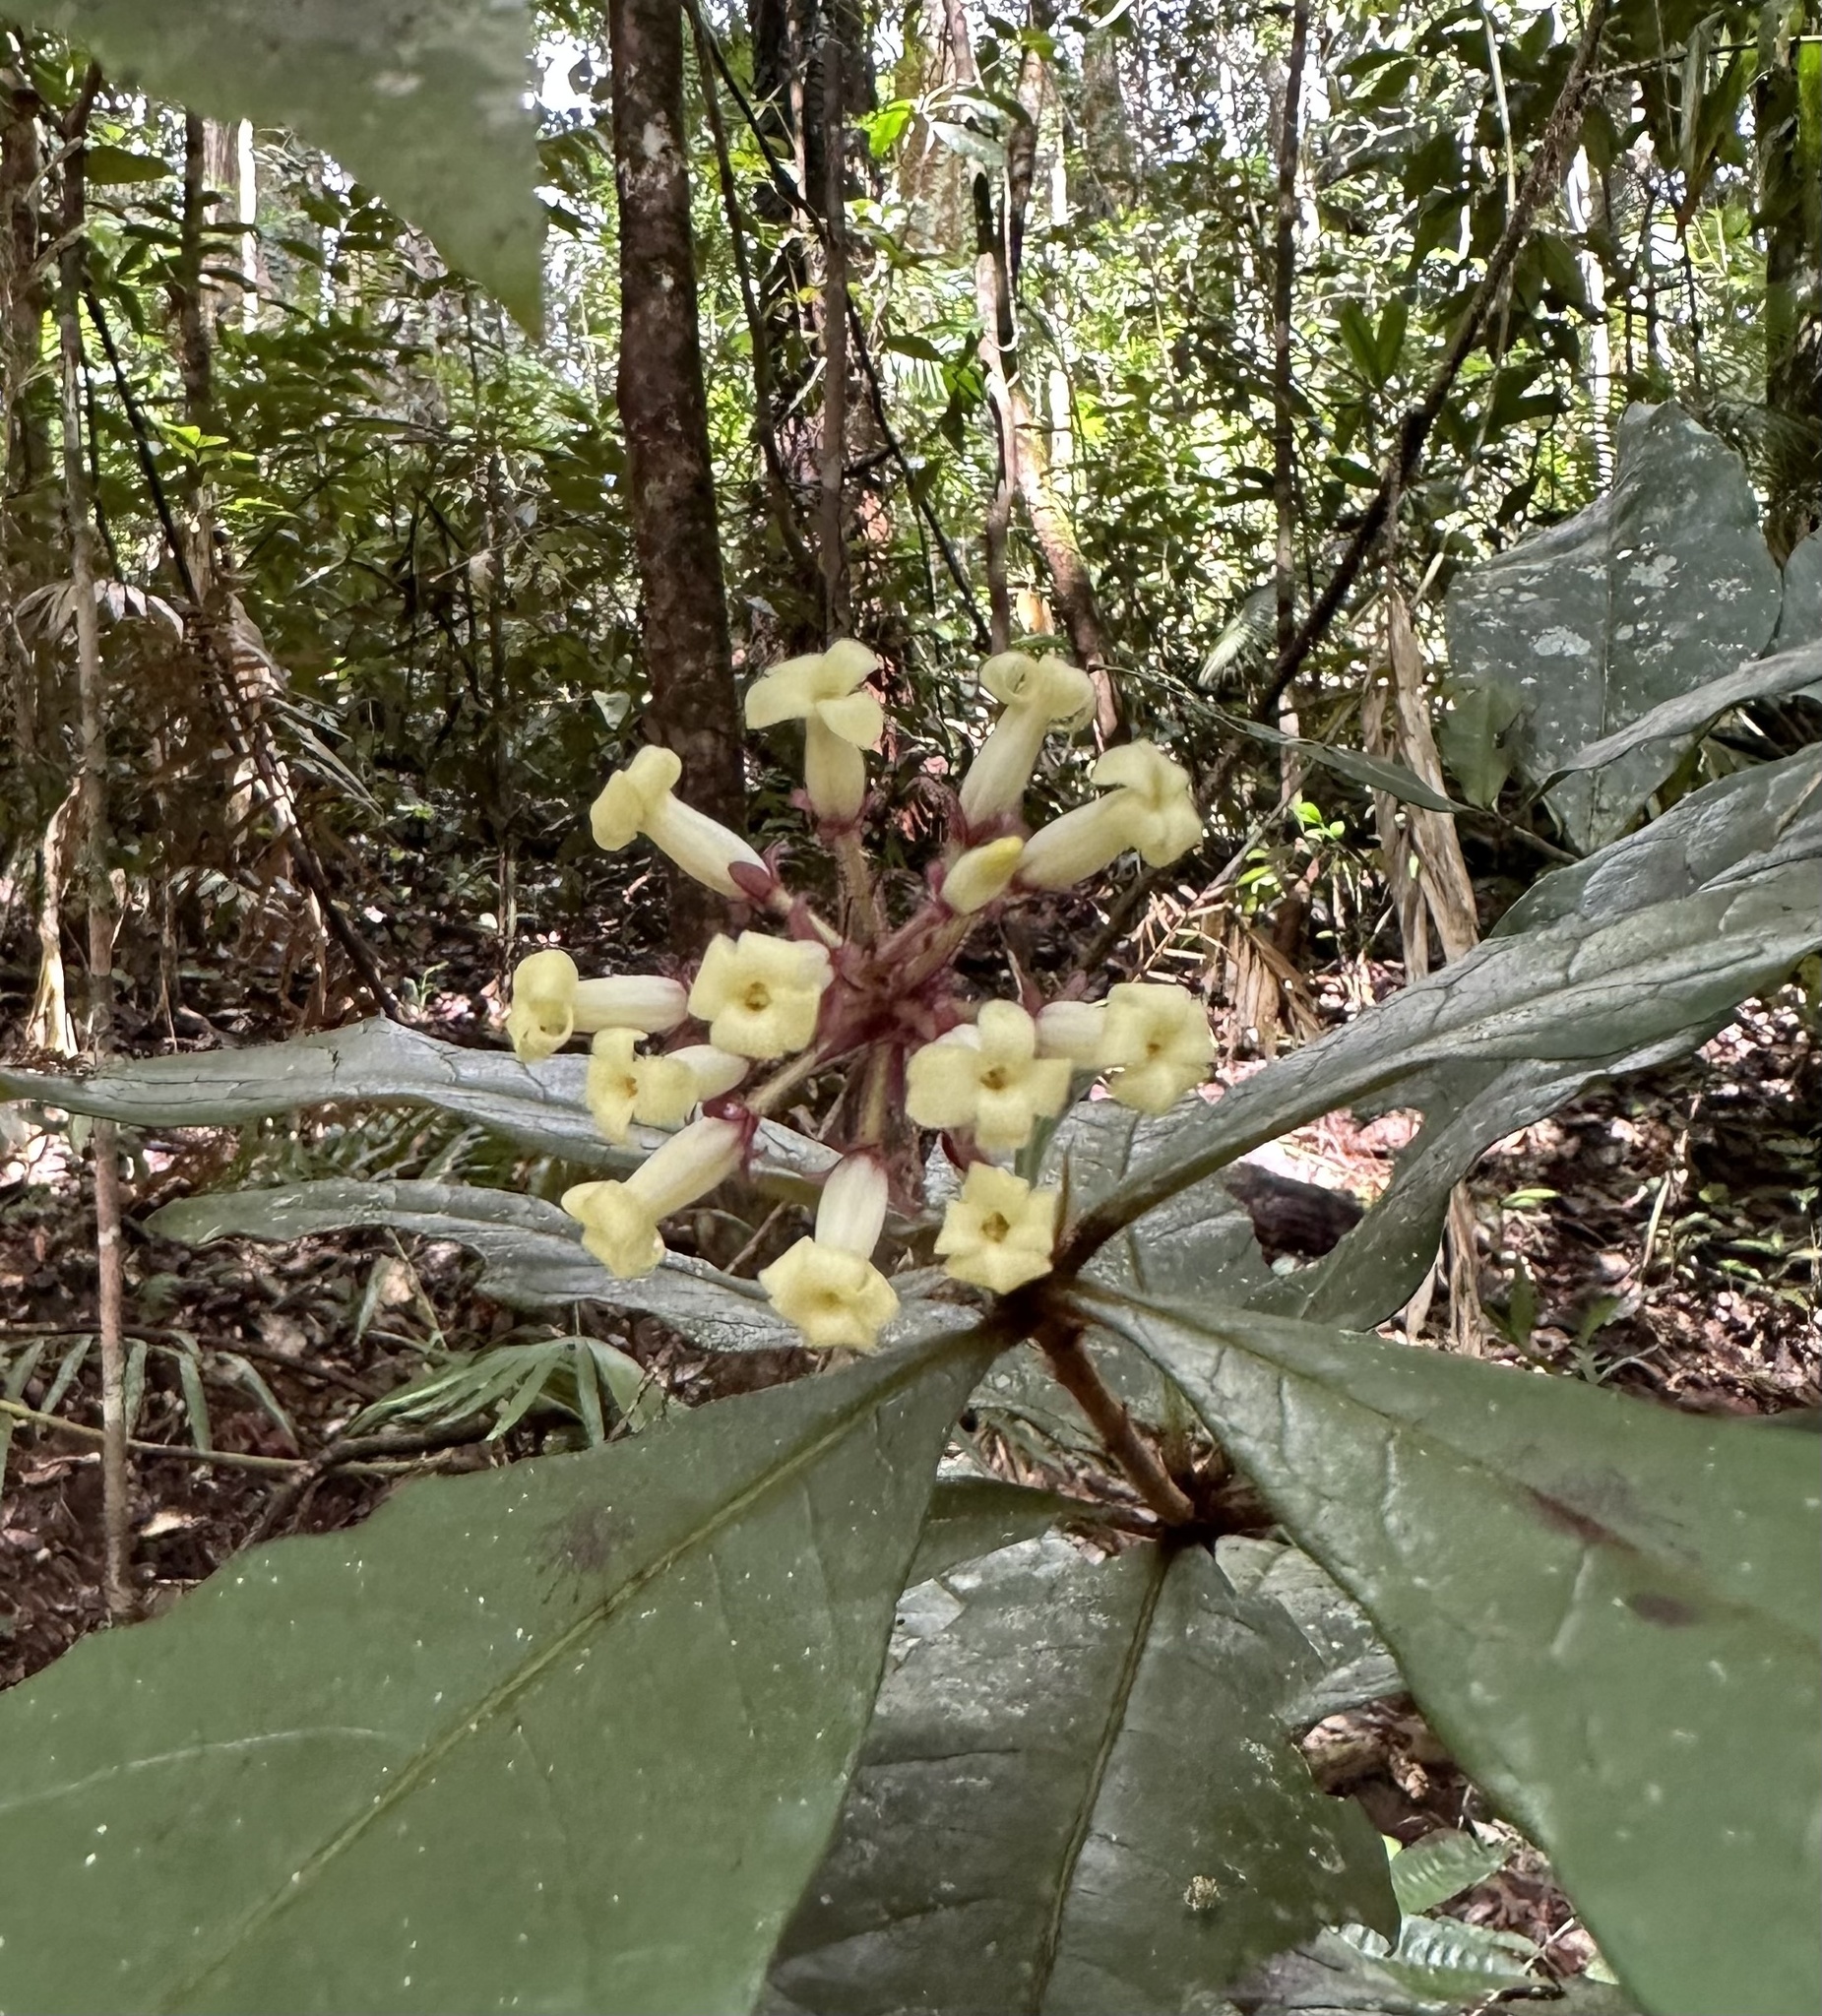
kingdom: Plantae
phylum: Tracheophyta
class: Magnoliopsida
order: Apiales
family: Pittosporaceae
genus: Pittosporum
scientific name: Pittosporum rubiginosum
